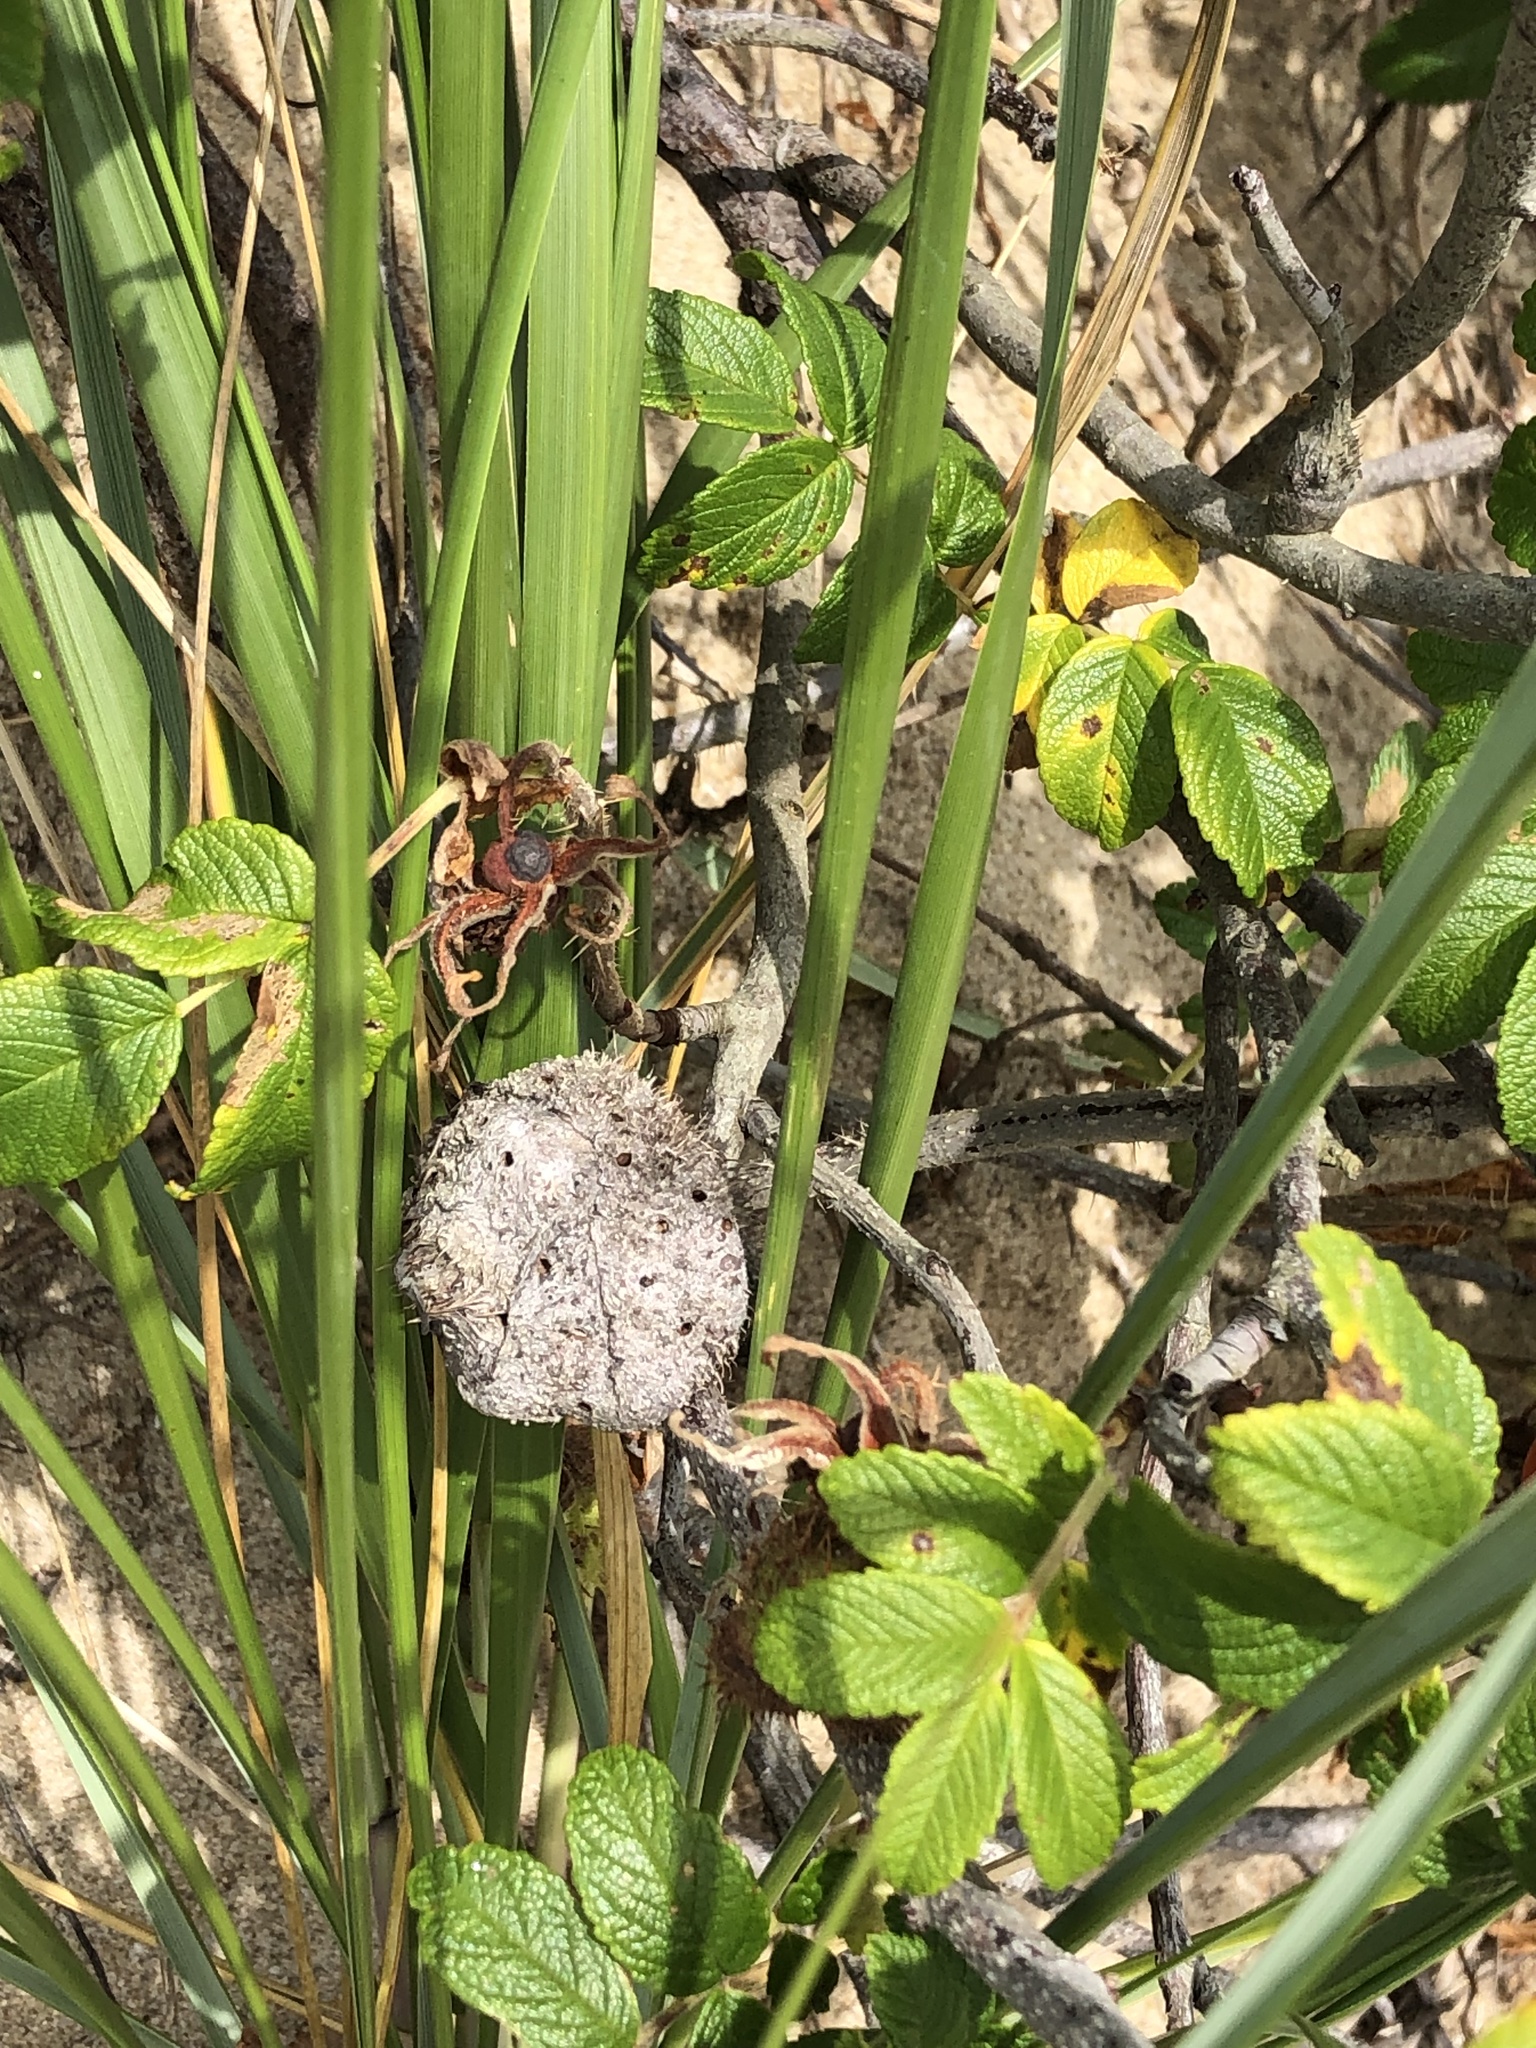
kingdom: Animalia
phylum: Arthropoda
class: Insecta
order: Hymenoptera
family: Cynipidae
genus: Diplolepis
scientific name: Diplolepis spinosa
